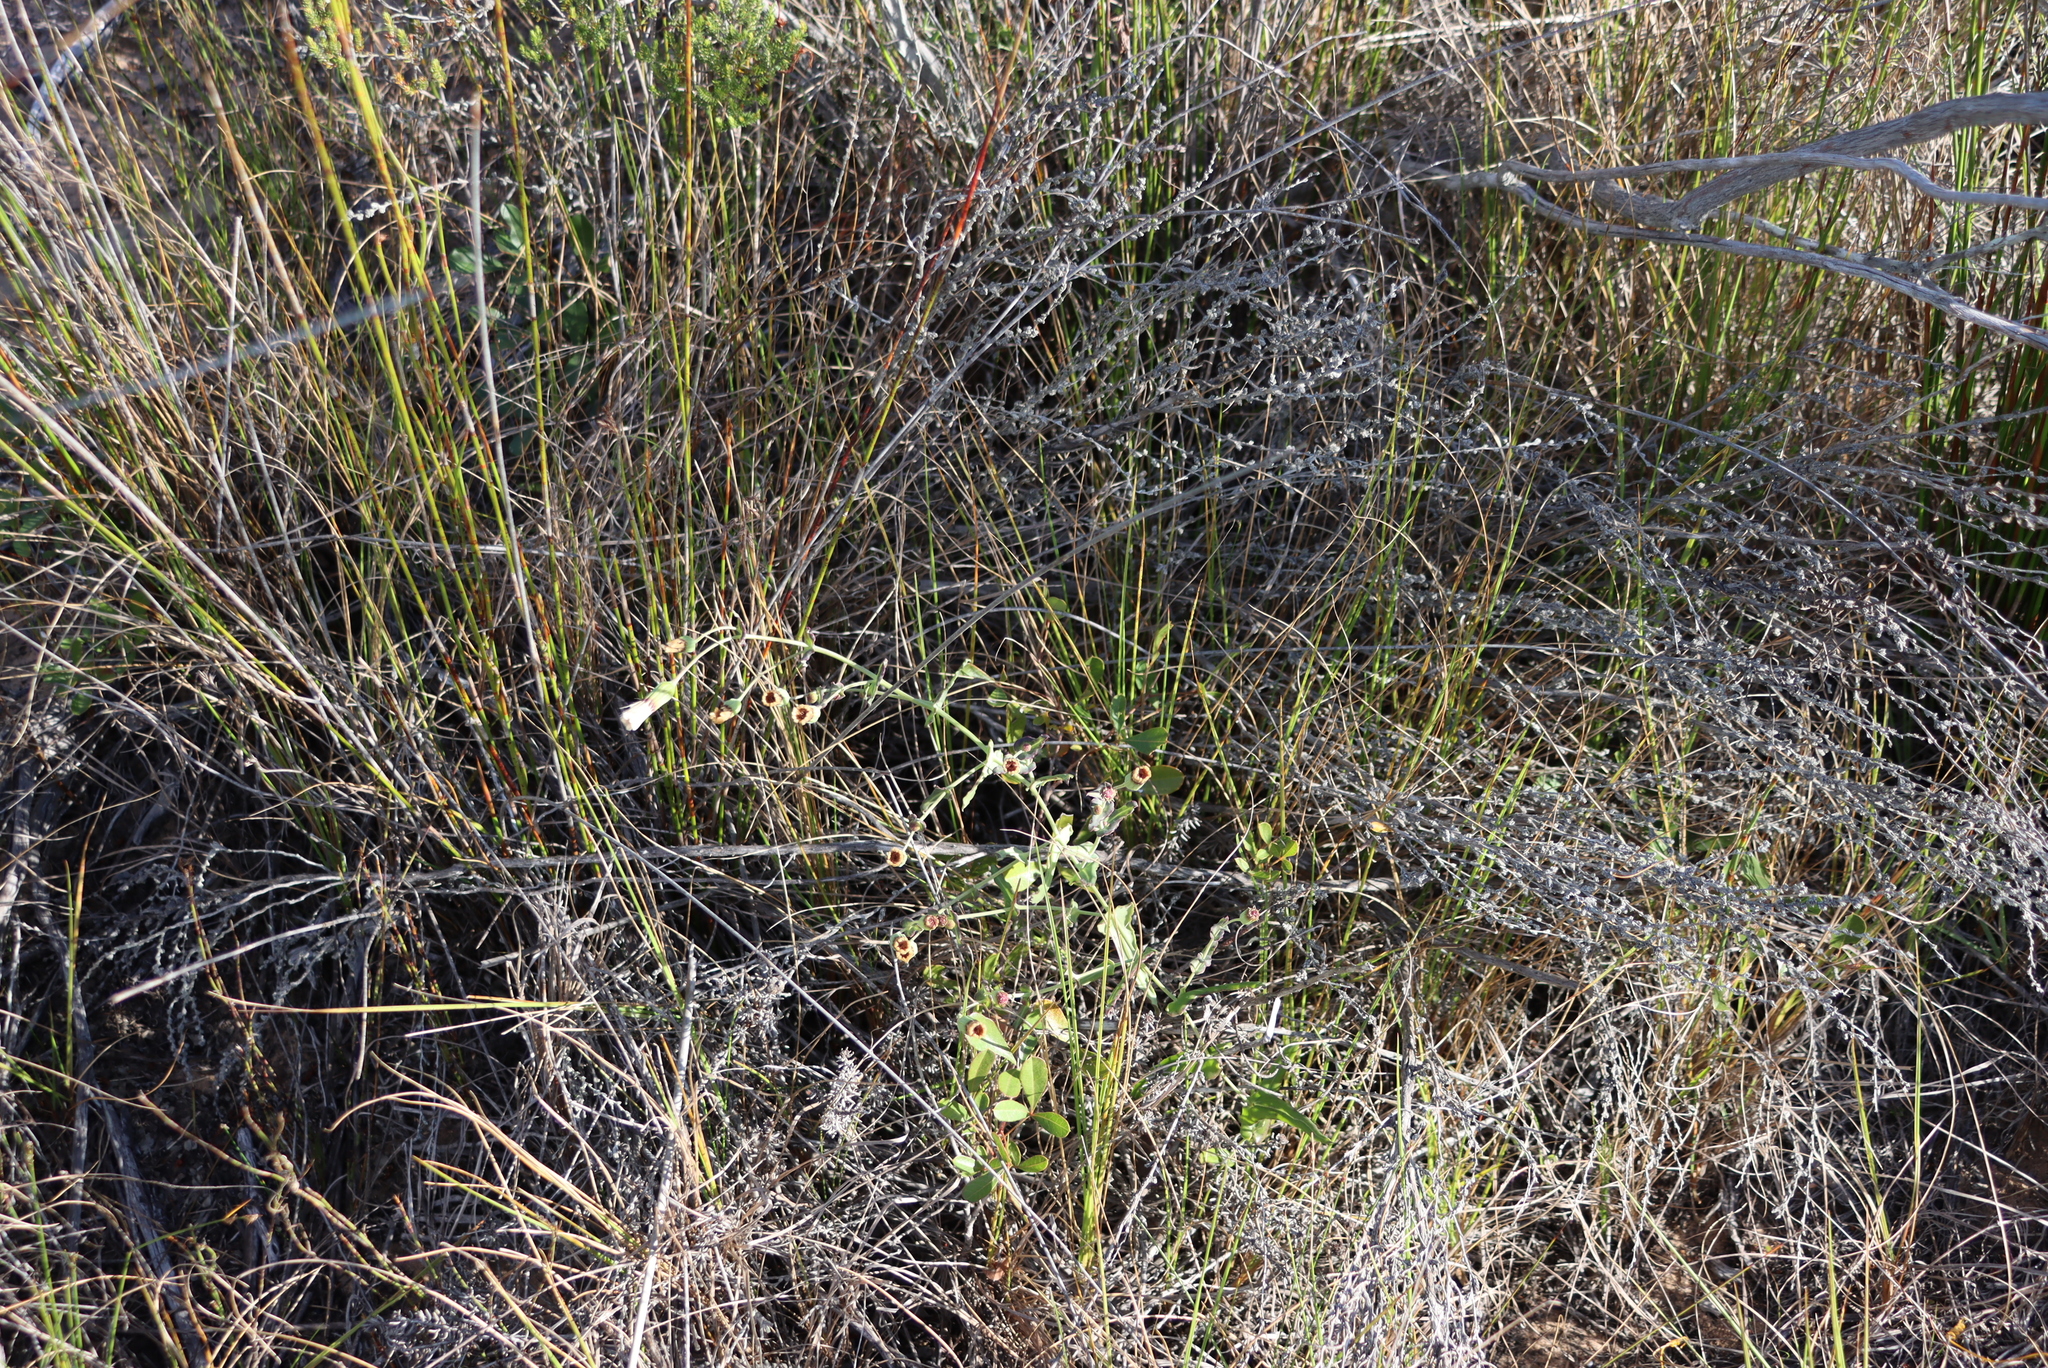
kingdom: Plantae
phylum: Tracheophyta
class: Magnoliopsida
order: Asterales
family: Asteraceae
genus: Othonna
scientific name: Othonna undulosa
